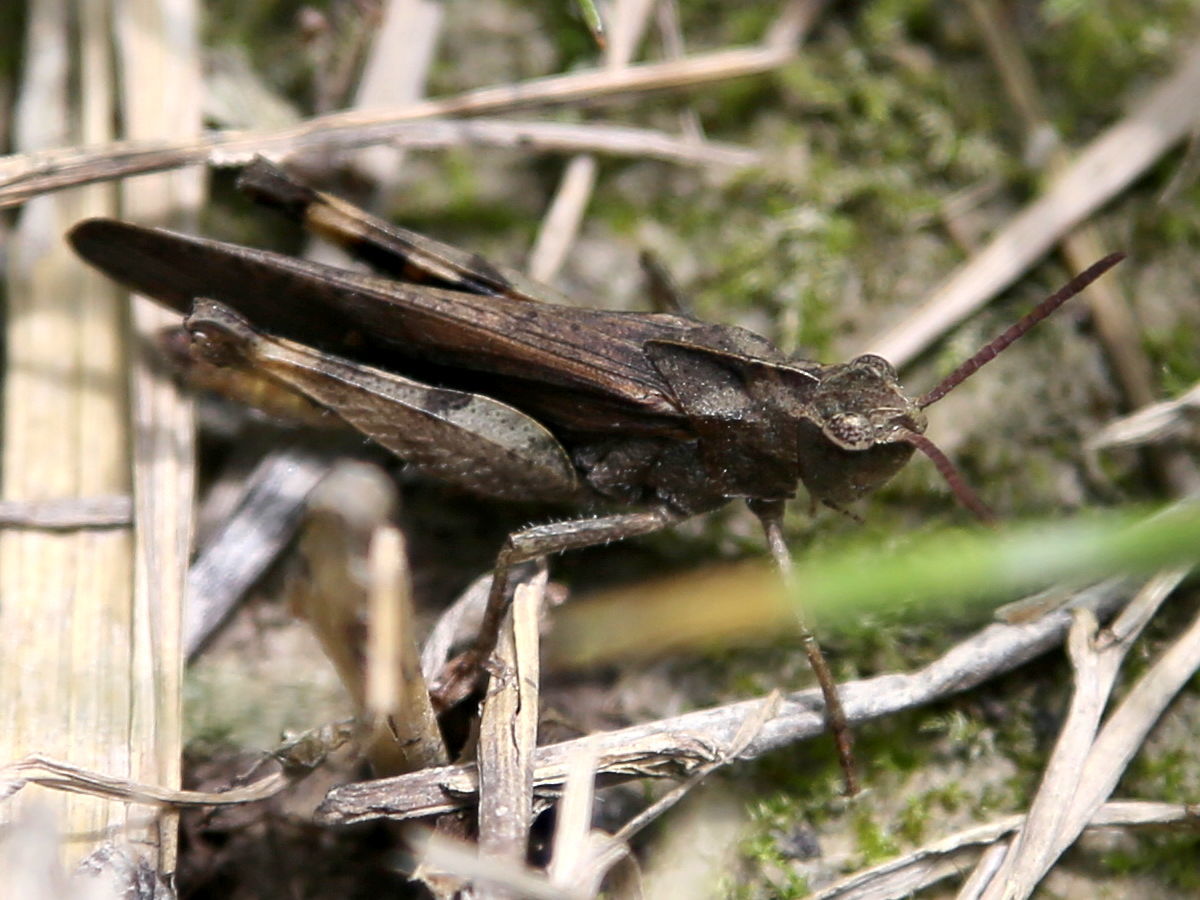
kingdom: Animalia
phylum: Arthropoda
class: Insecta
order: Orthoptera
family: Acrididae
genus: Chortophaga
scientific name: Chortophaga viridifasciata
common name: Green-striped grasshopper
